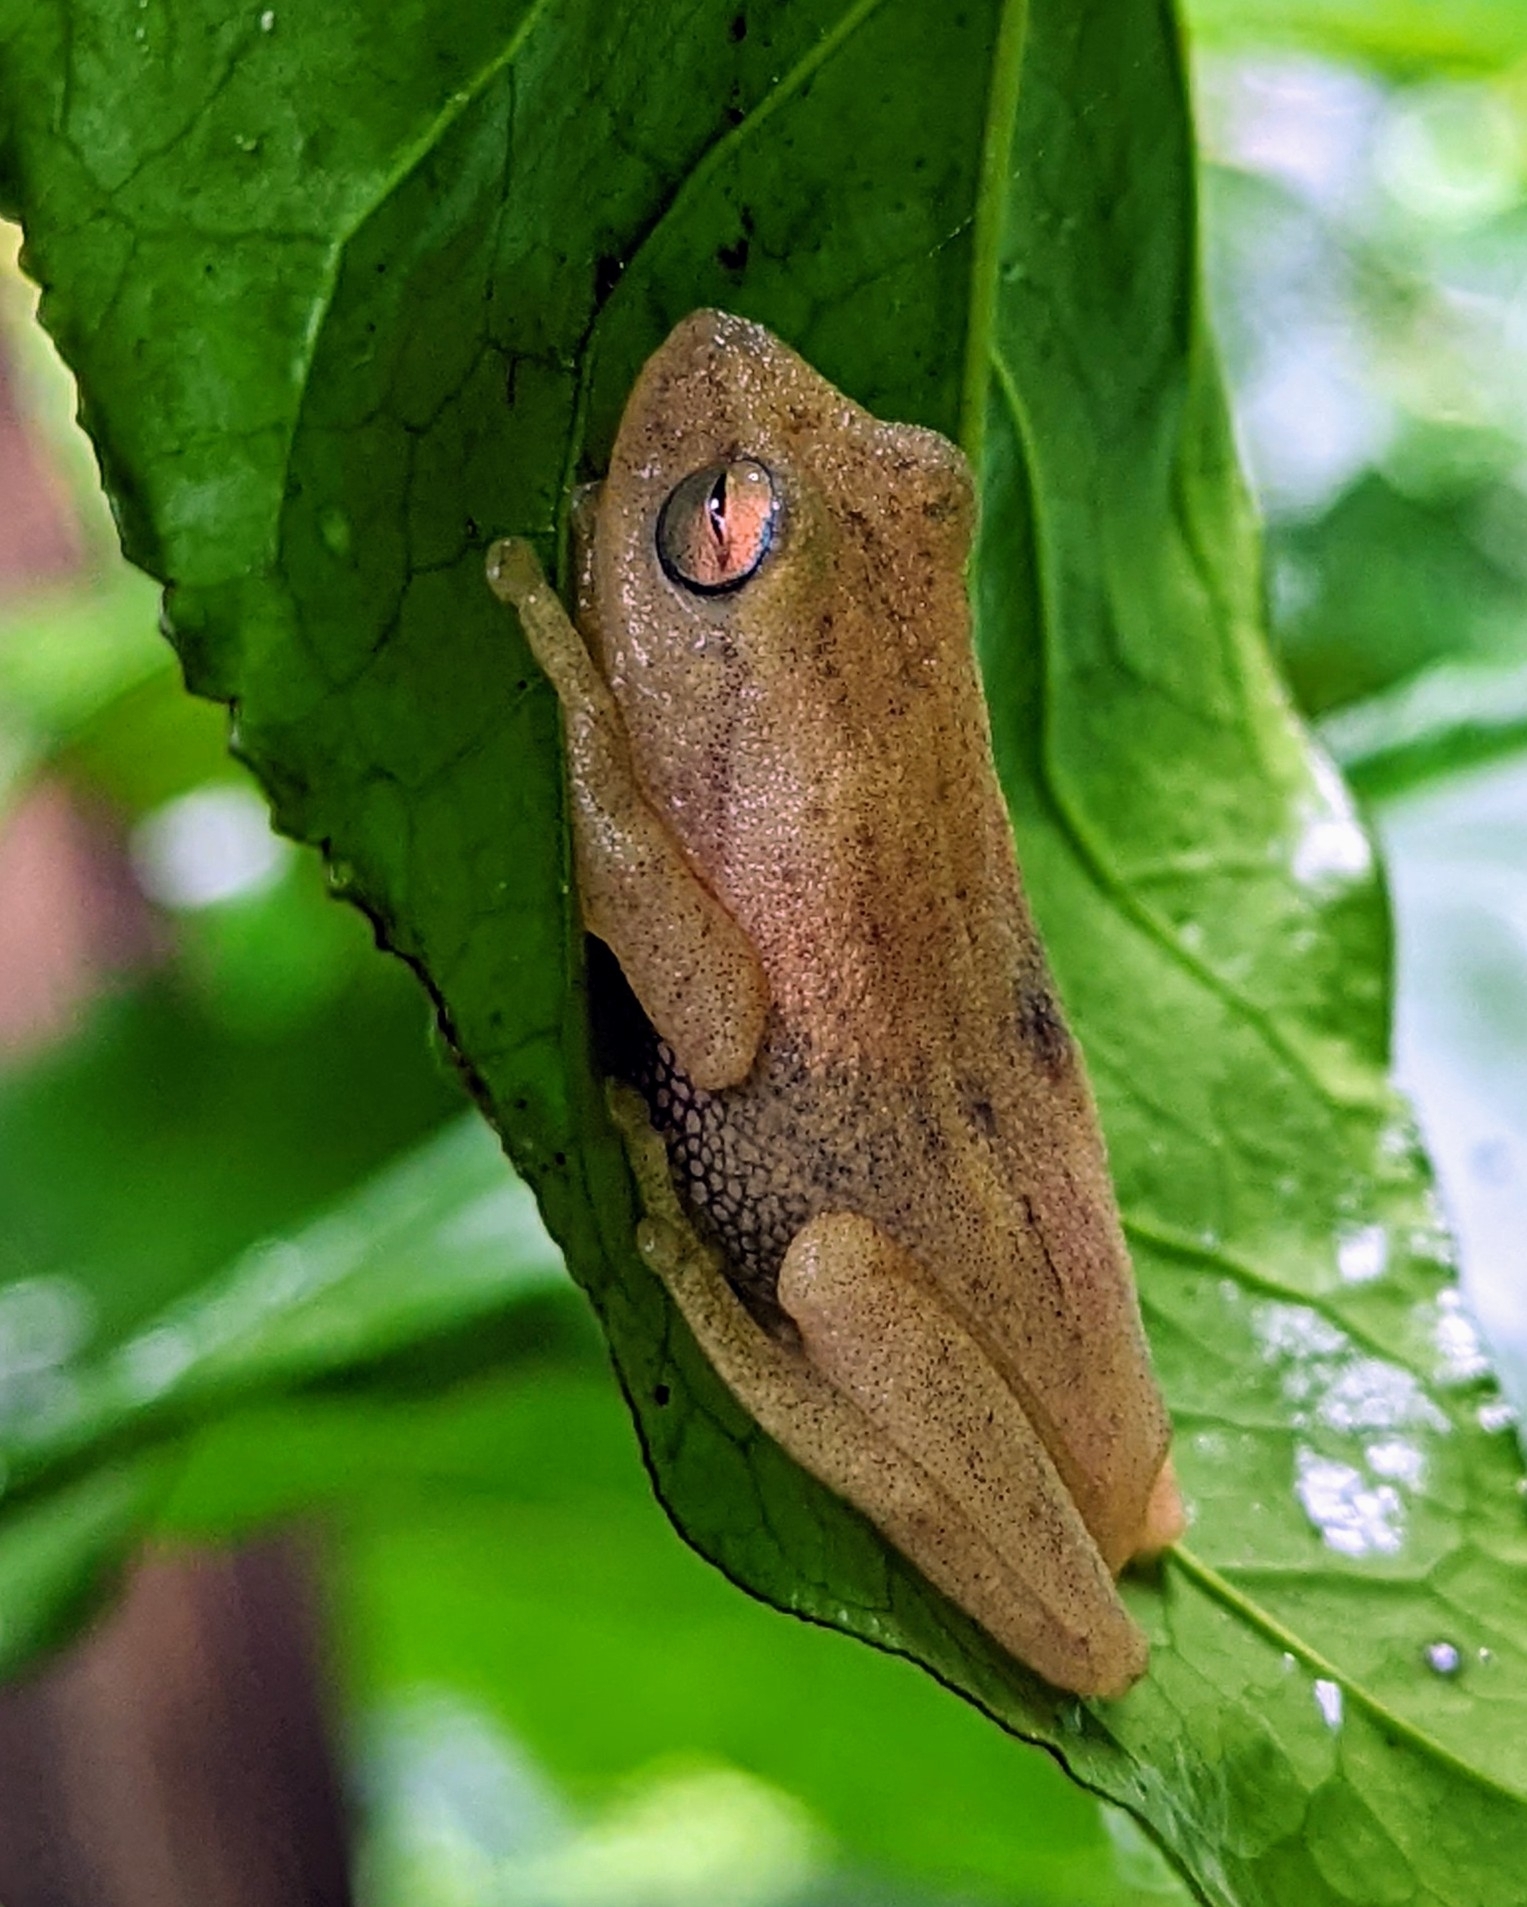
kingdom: Animalia
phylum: Chordata
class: Amphibia
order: Anura
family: Rhacophoridae
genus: Raorchestes
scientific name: Raorchestes luteolus
